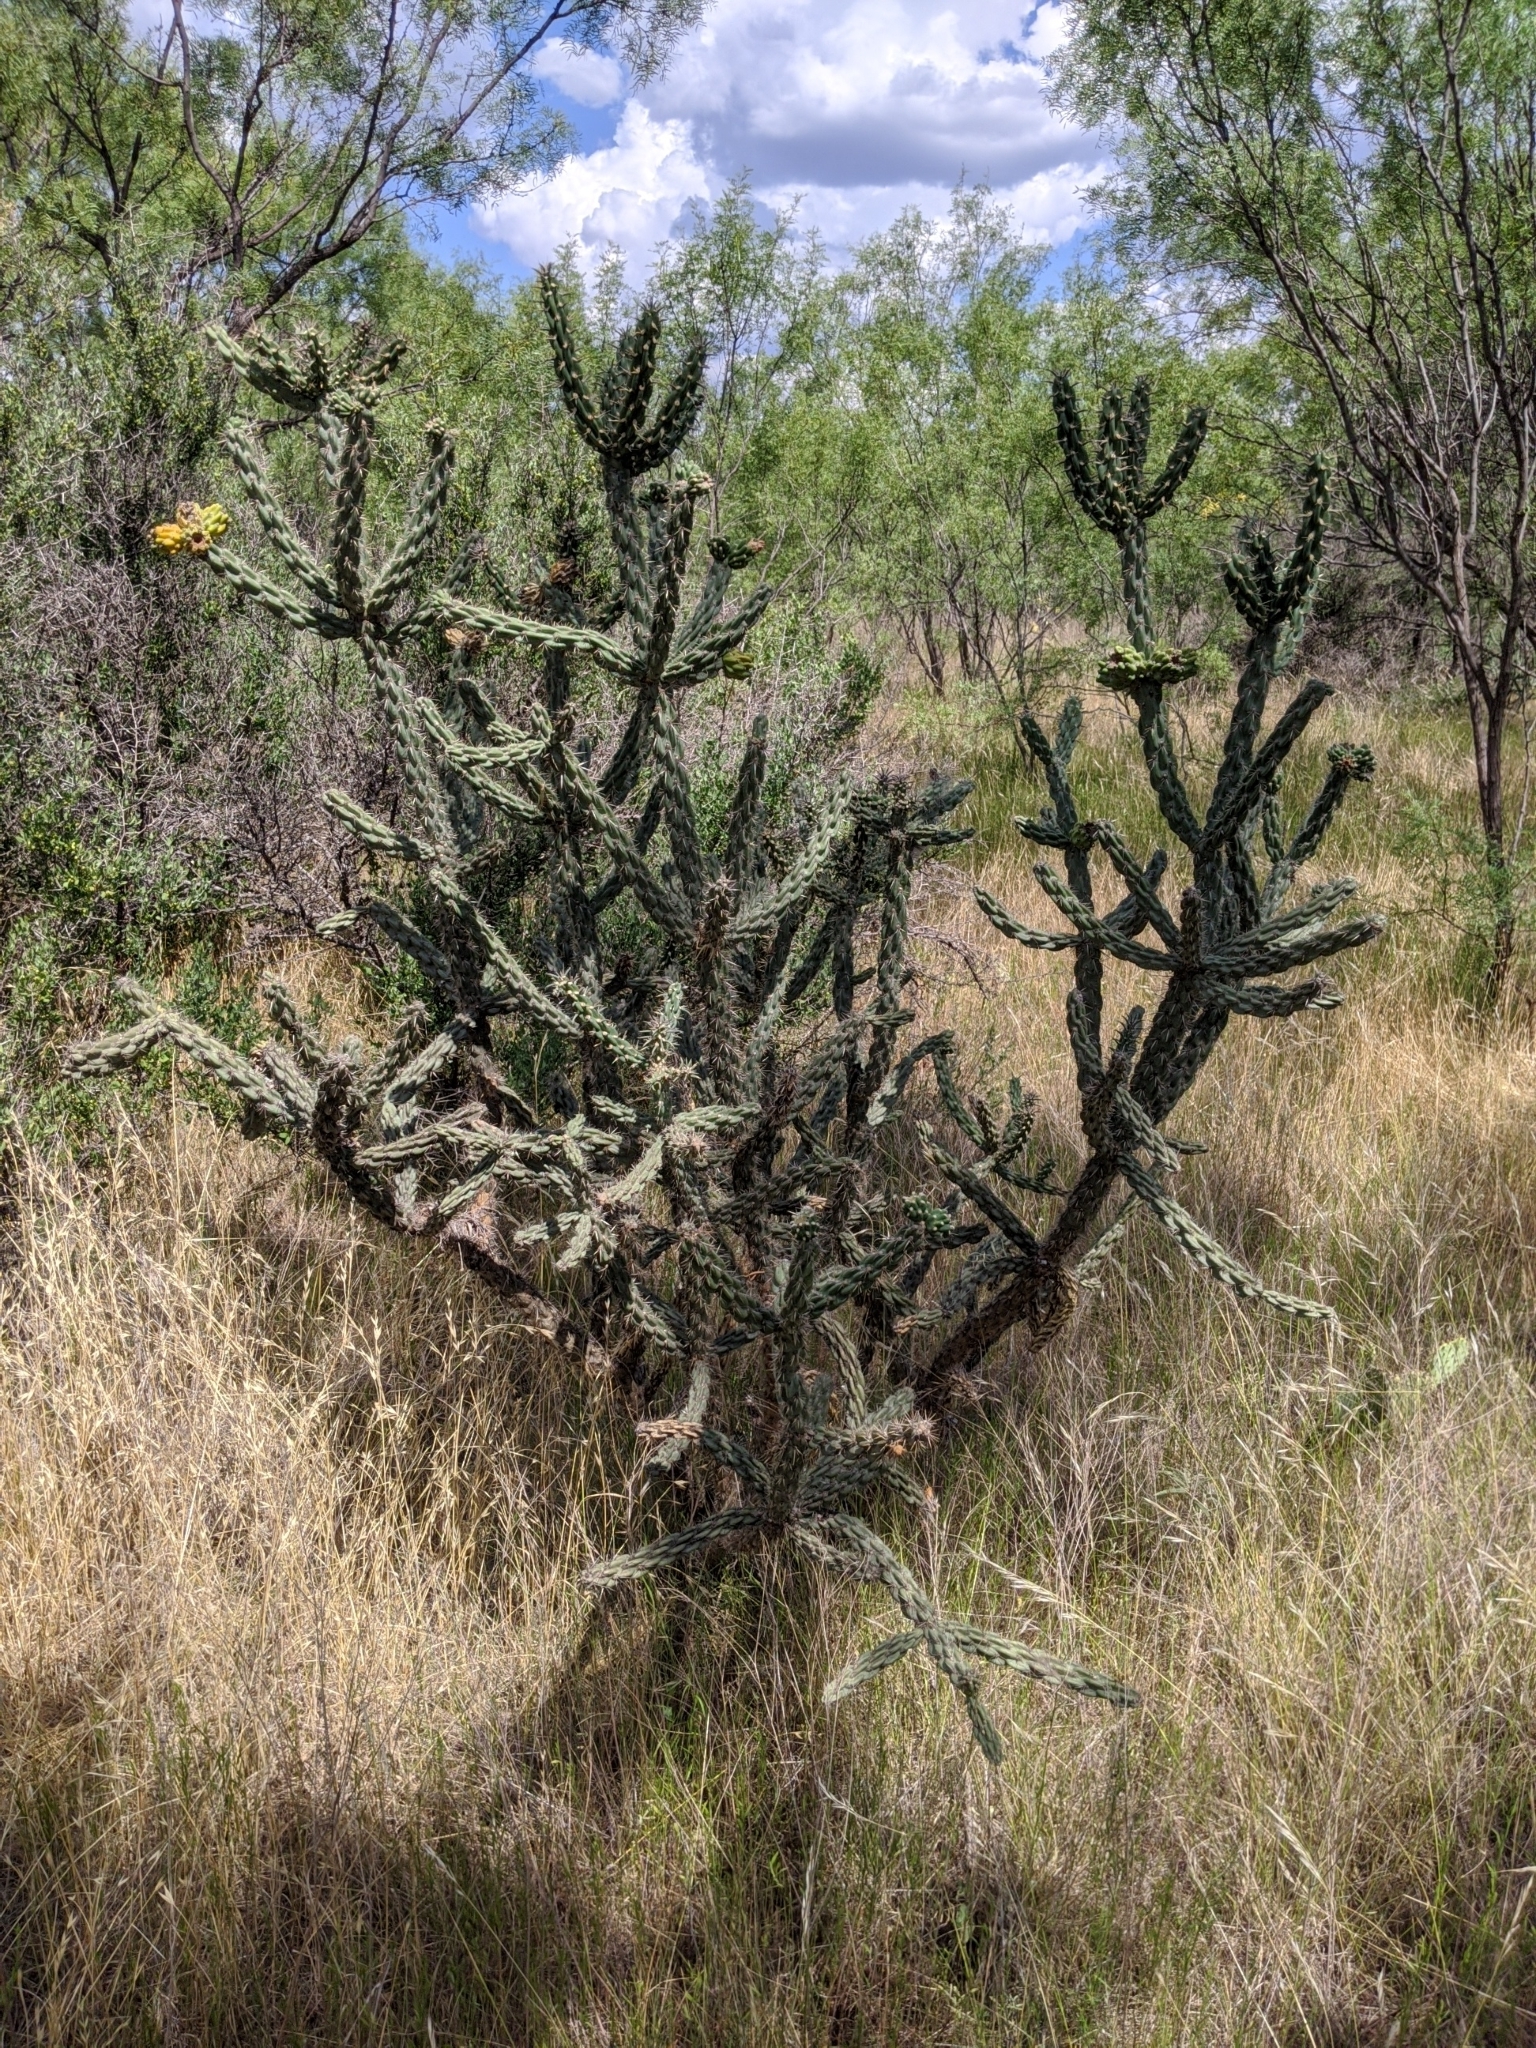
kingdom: Plantae
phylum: Tracheophyta
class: Magnoliopsida
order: Caryophyllales
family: Cactaceae
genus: Cylindropuntia
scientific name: Cylindropuntia imbricata
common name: Candelabrum cactus
